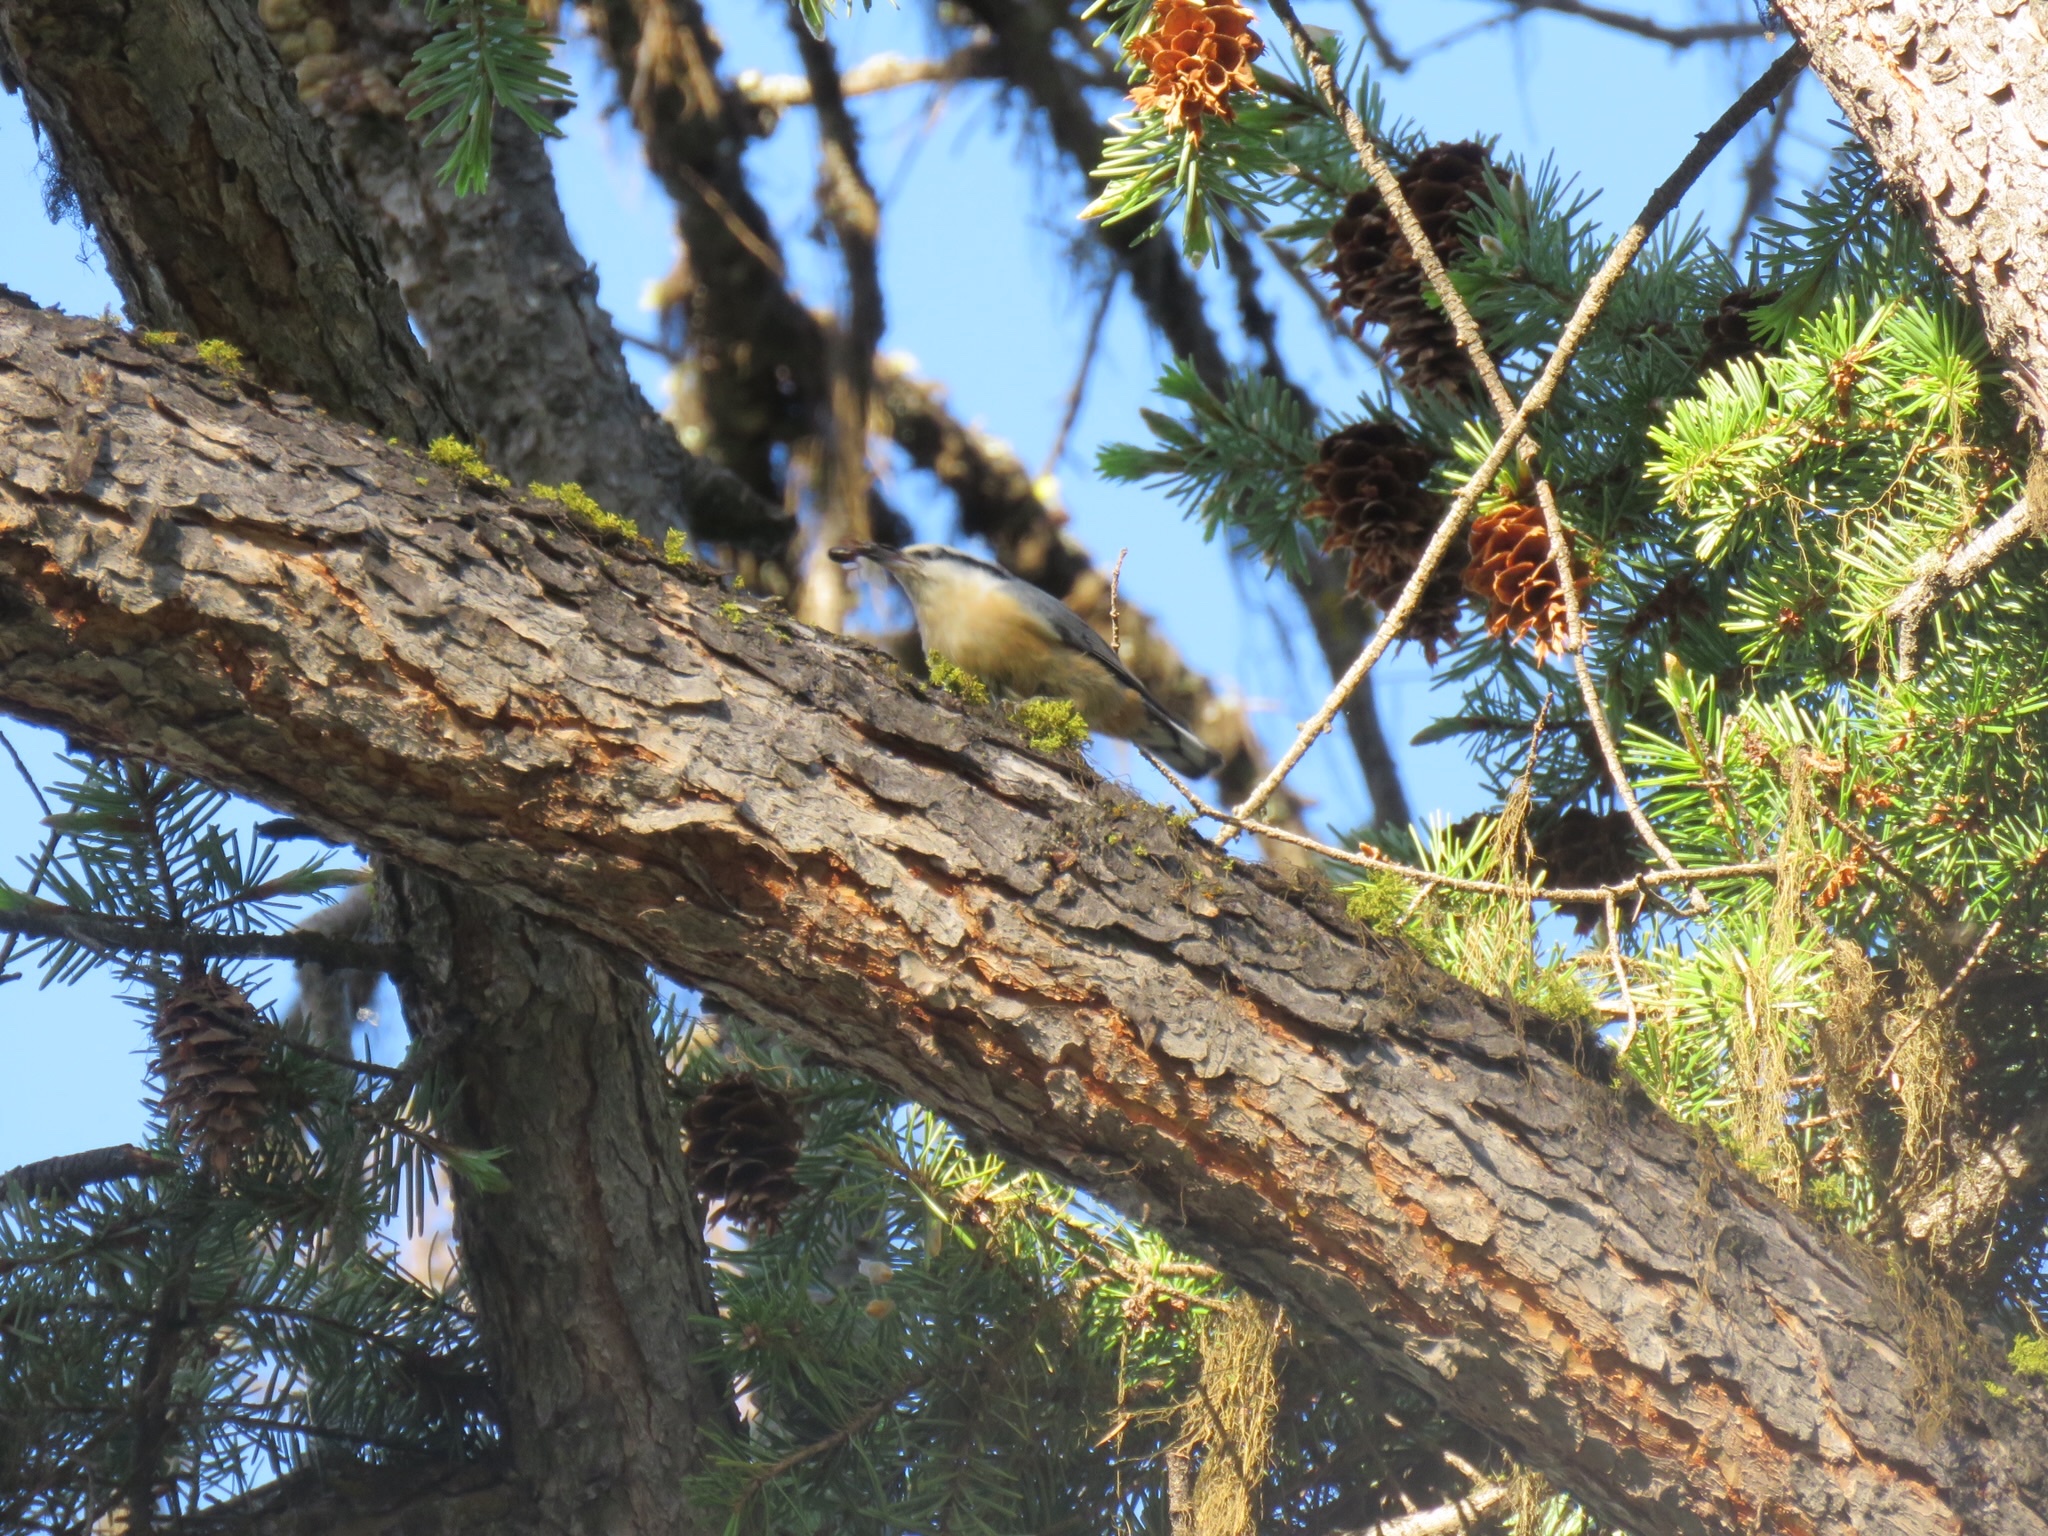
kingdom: Animalia
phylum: Chordata
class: Aves
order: Passeriformes
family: Sittidae
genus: Sitta
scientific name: Sitta canadensis
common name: Red-breasted nuthatch
